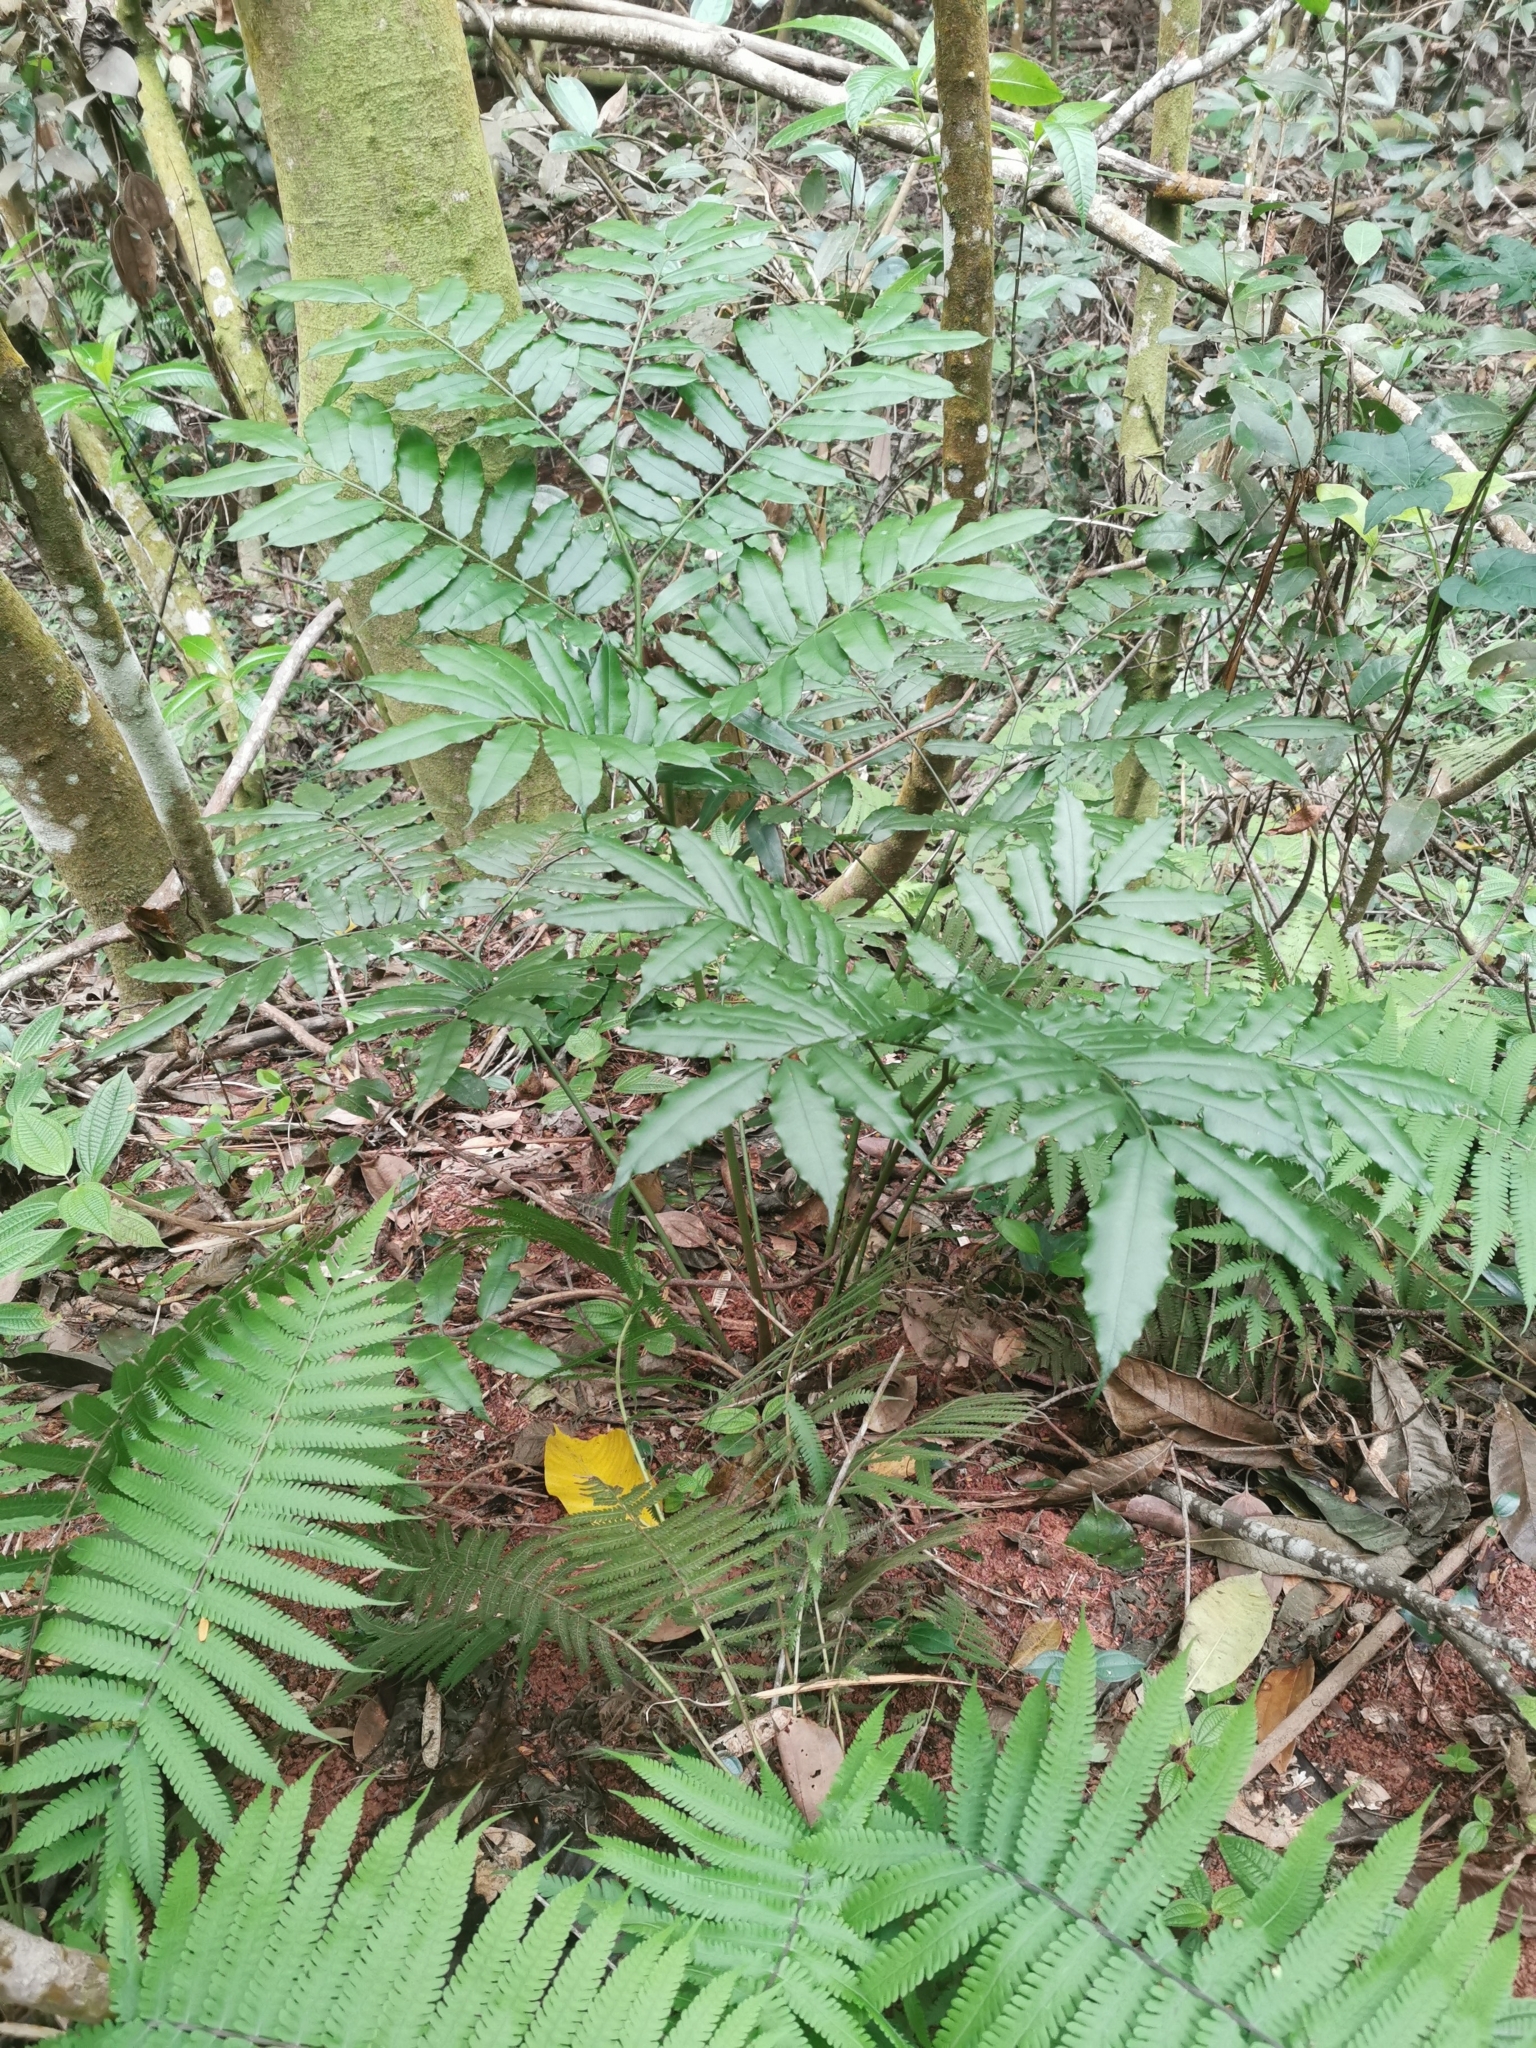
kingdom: Plantae
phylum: Tracheophyta
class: Polypodiopsida
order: Marattiales
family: Marattiaceae
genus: Angiopteris
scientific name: Angiopteris madagascariensis
